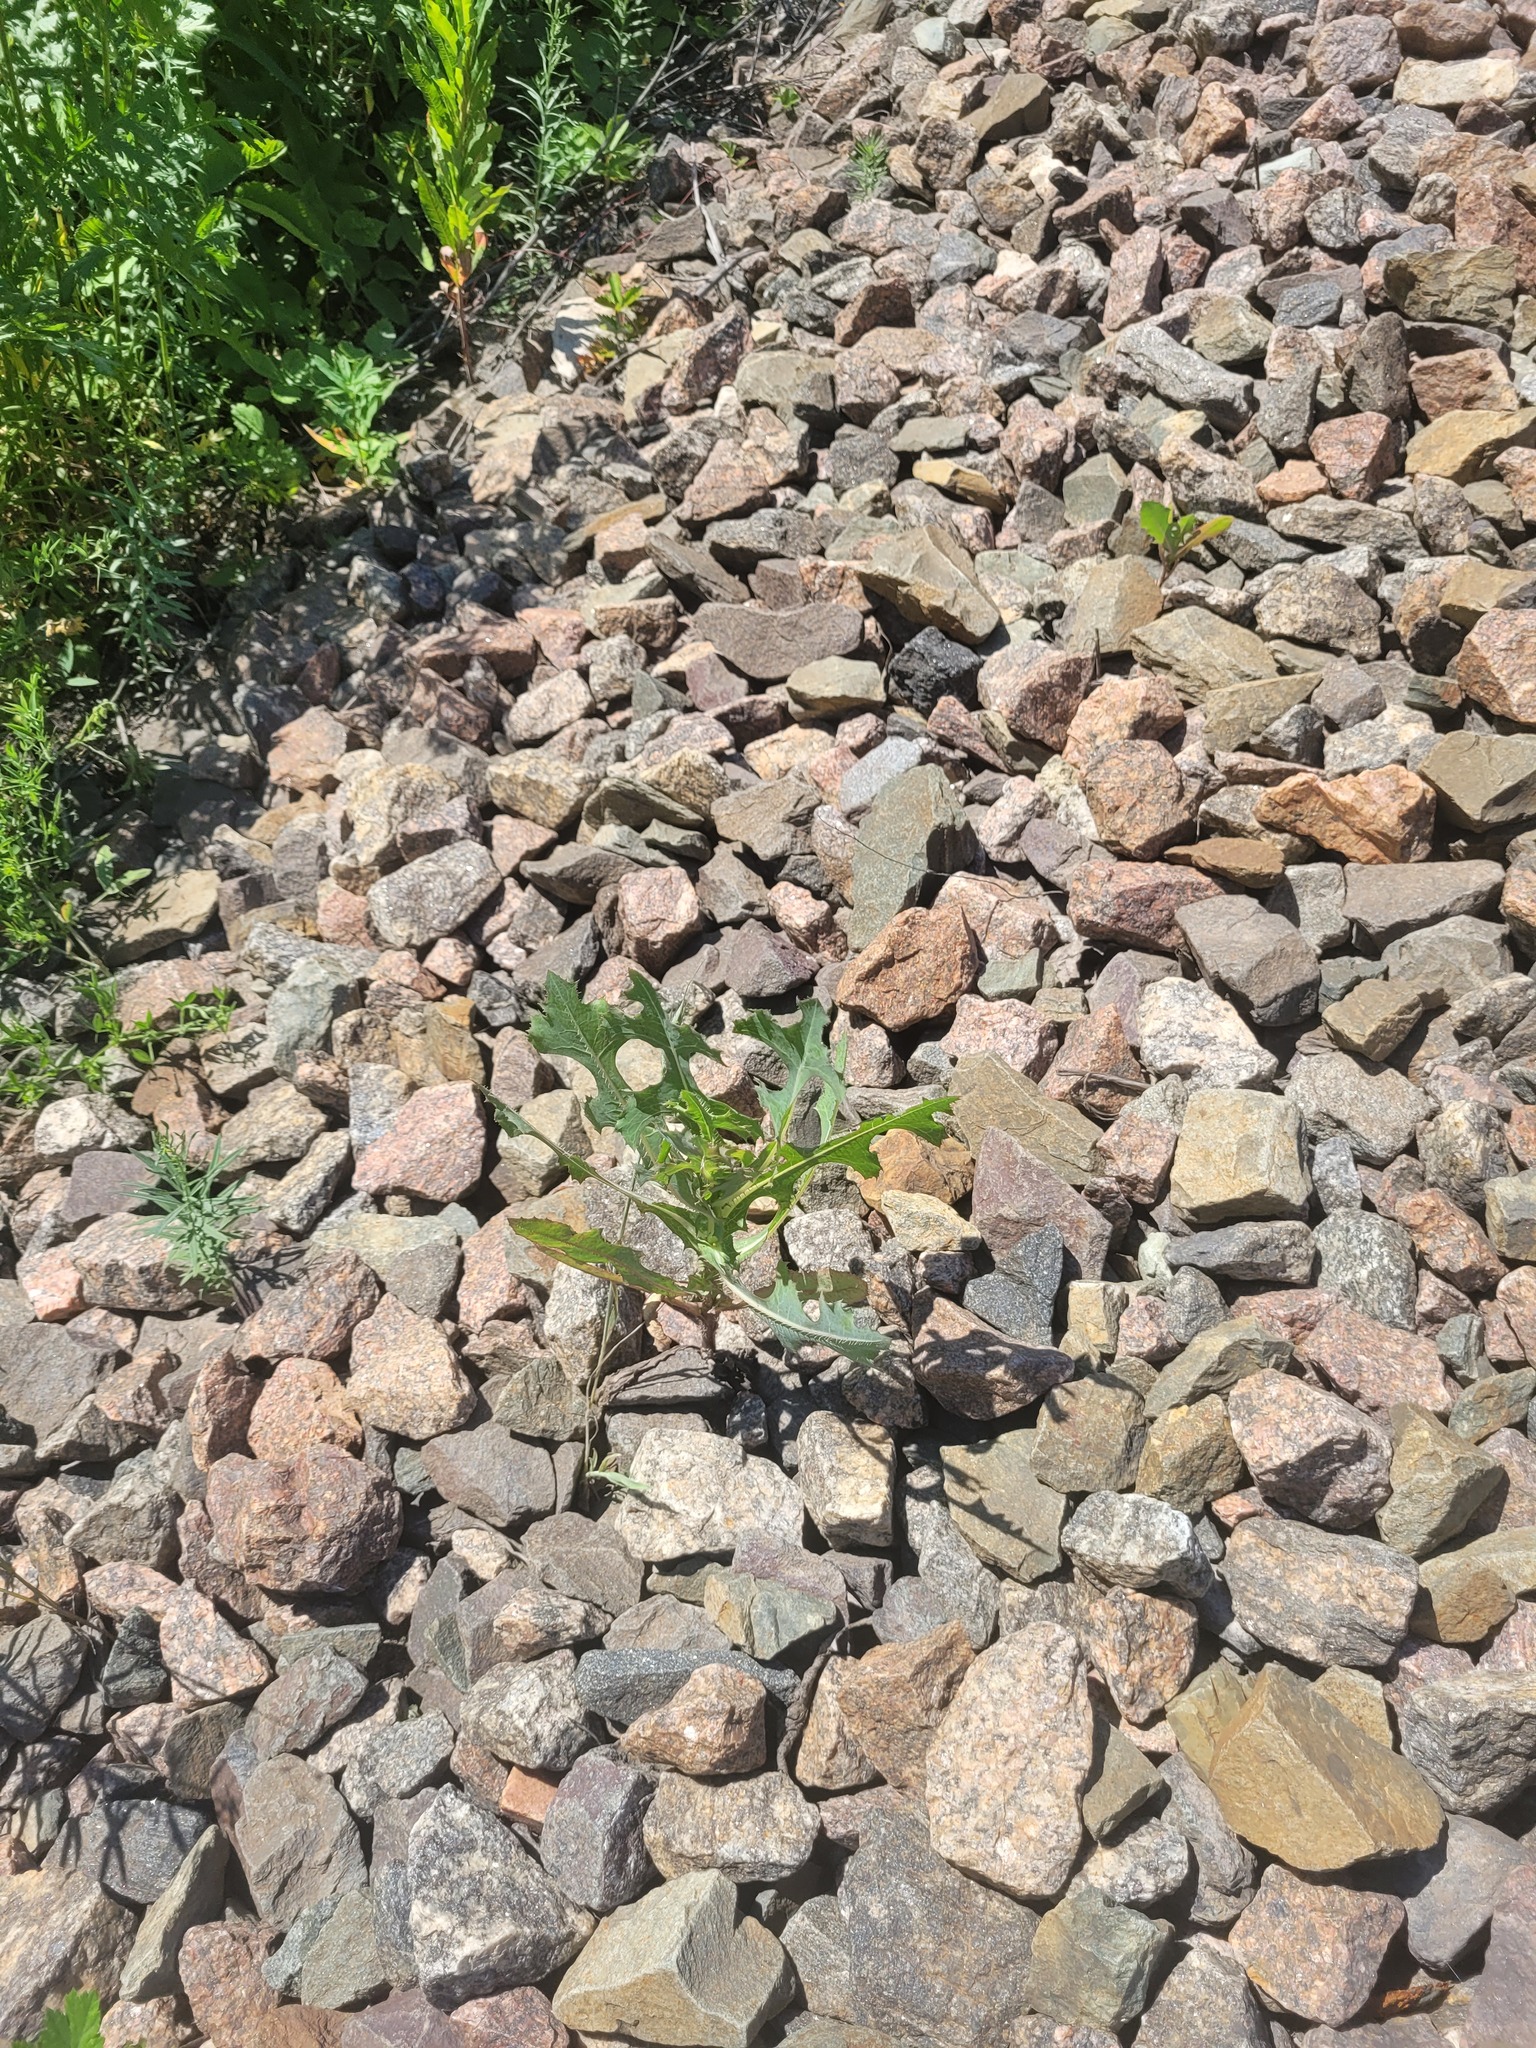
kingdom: Plantae
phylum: Tracheophyta
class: Magnoliopsida
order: Asterales
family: Asteraceae
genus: Lactuca
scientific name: Lactuca serriola
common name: Prickly lettuce
